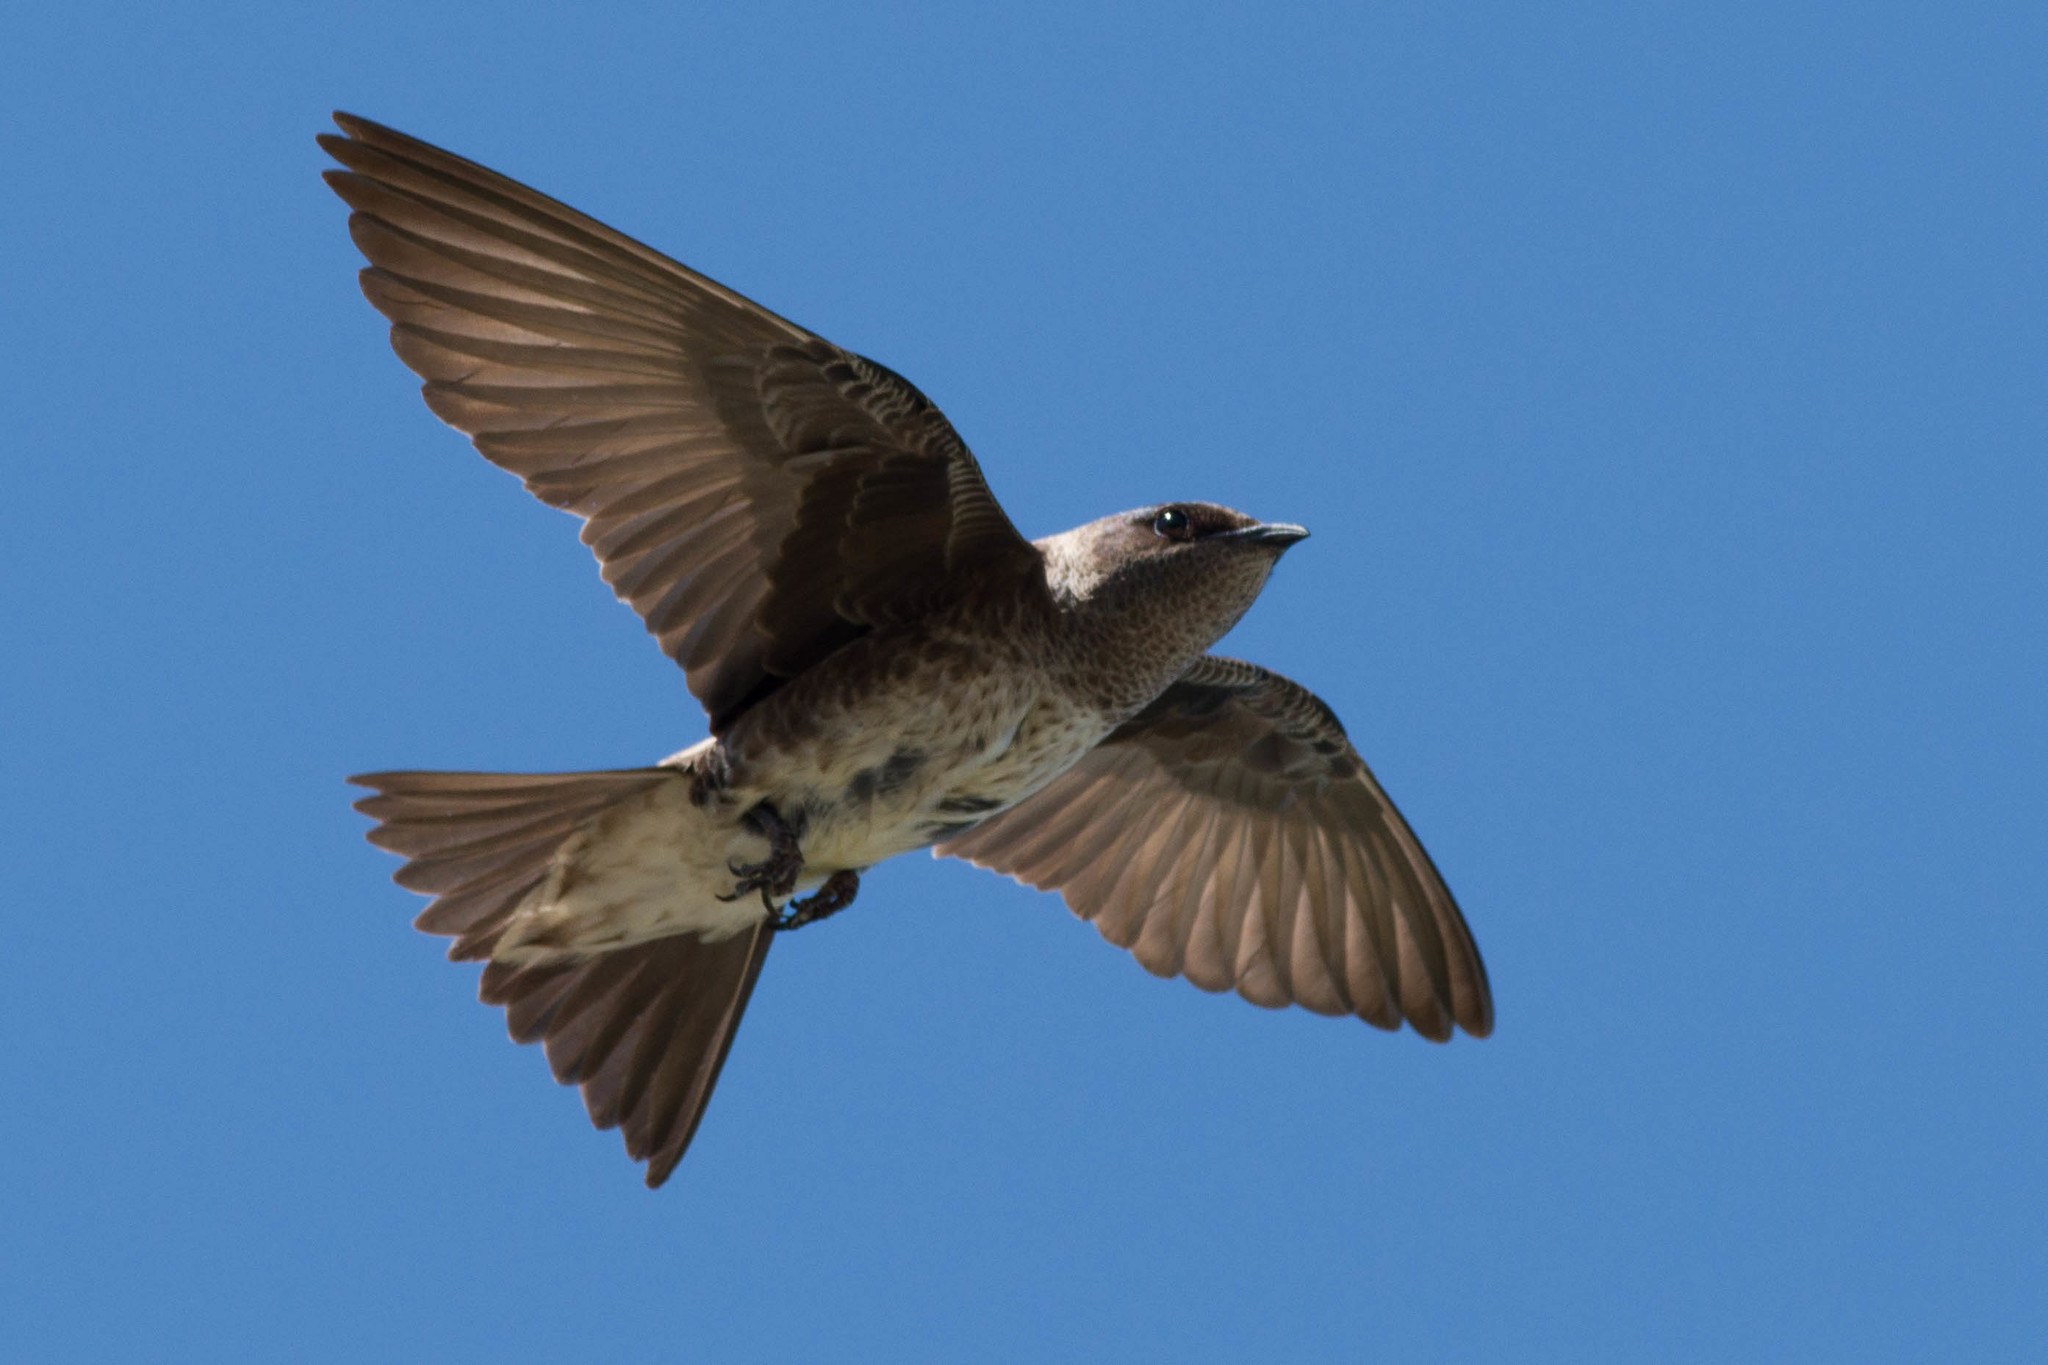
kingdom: Animalia
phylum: Chordata
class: Aves
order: Passeriformes
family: Hirundinidae
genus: Progne
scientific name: Progne subis
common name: Purple martin
